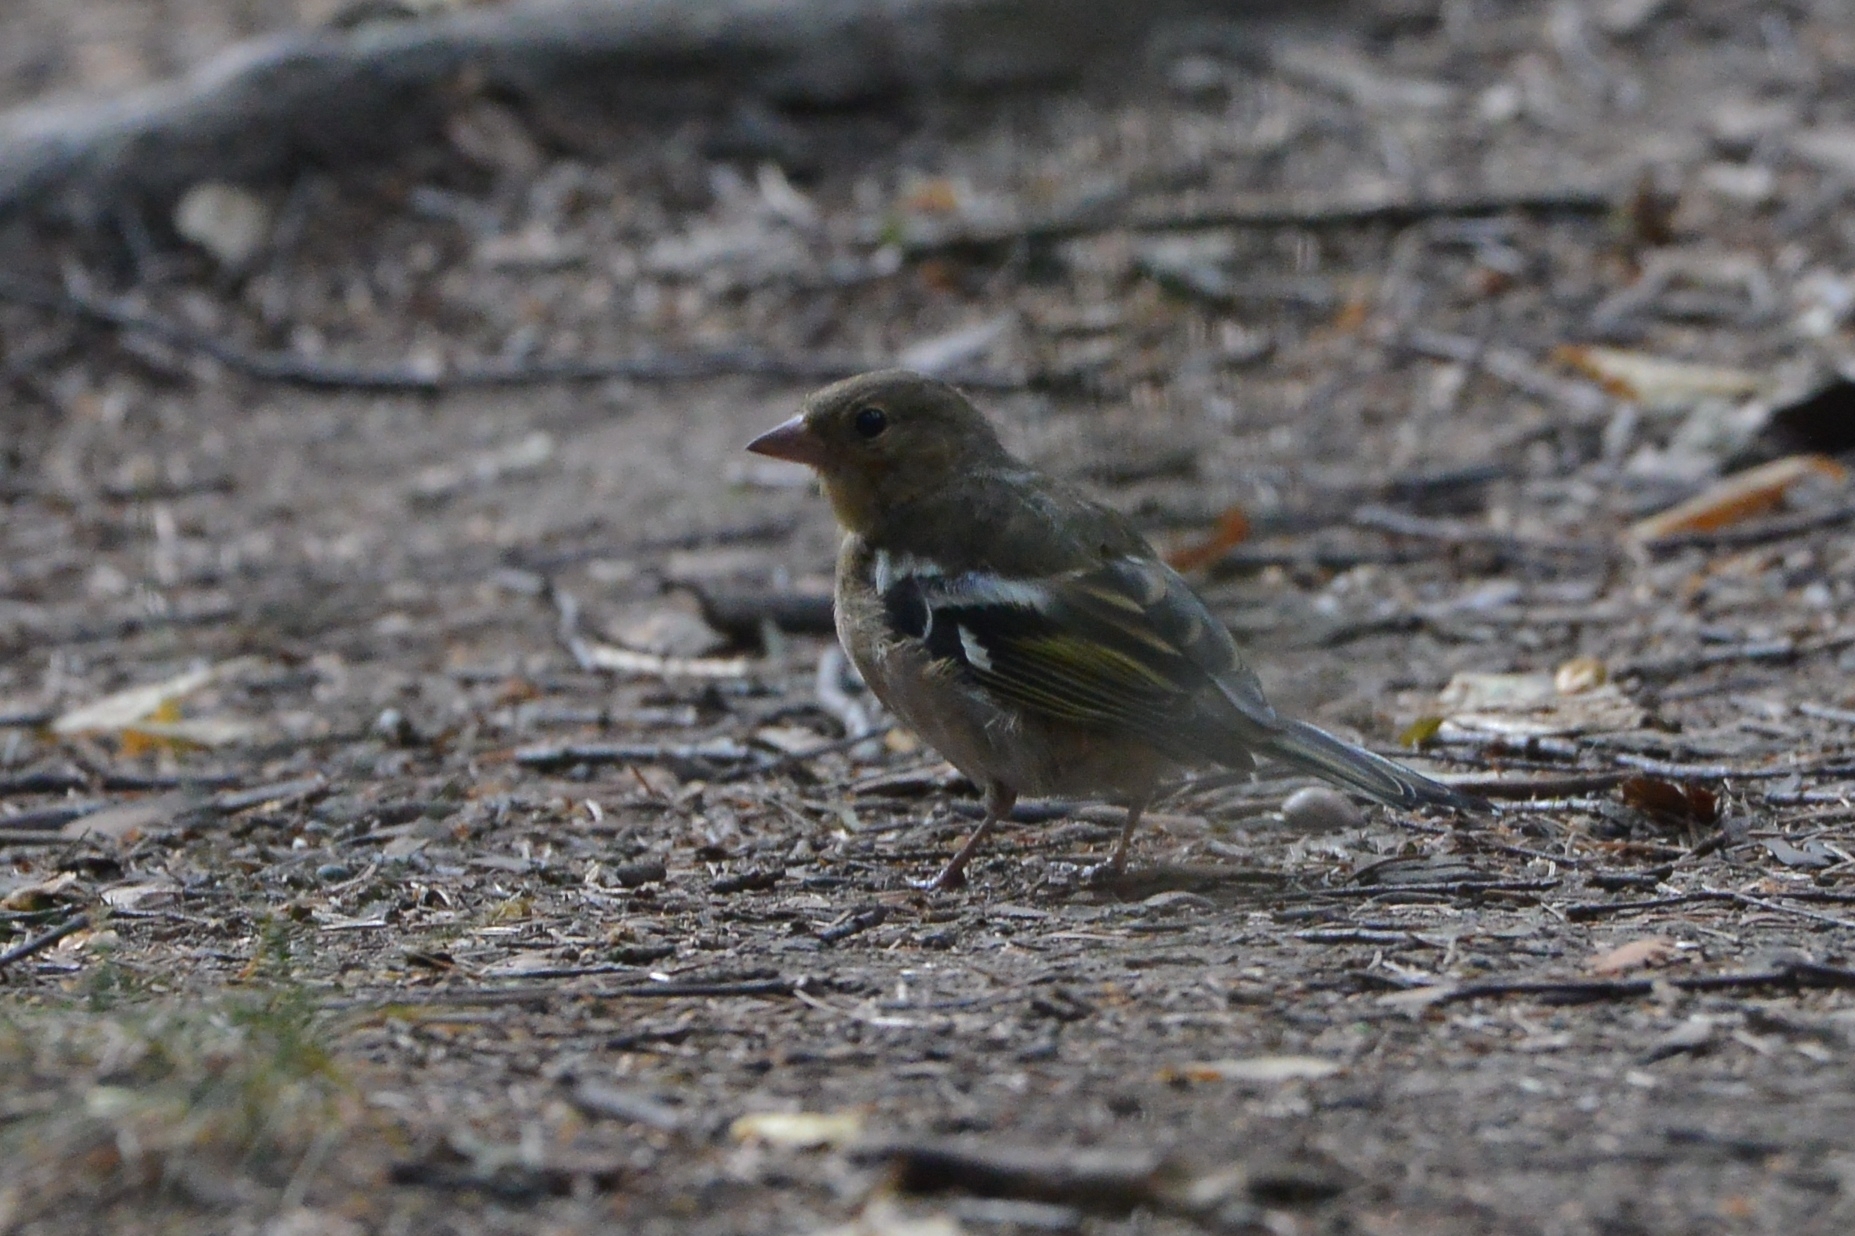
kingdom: Animalia
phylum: Chordata
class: Aves
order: Passeriformes
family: Fringillidae
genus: Fringilla
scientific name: Fringilla coelebs
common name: Common chaffinch
